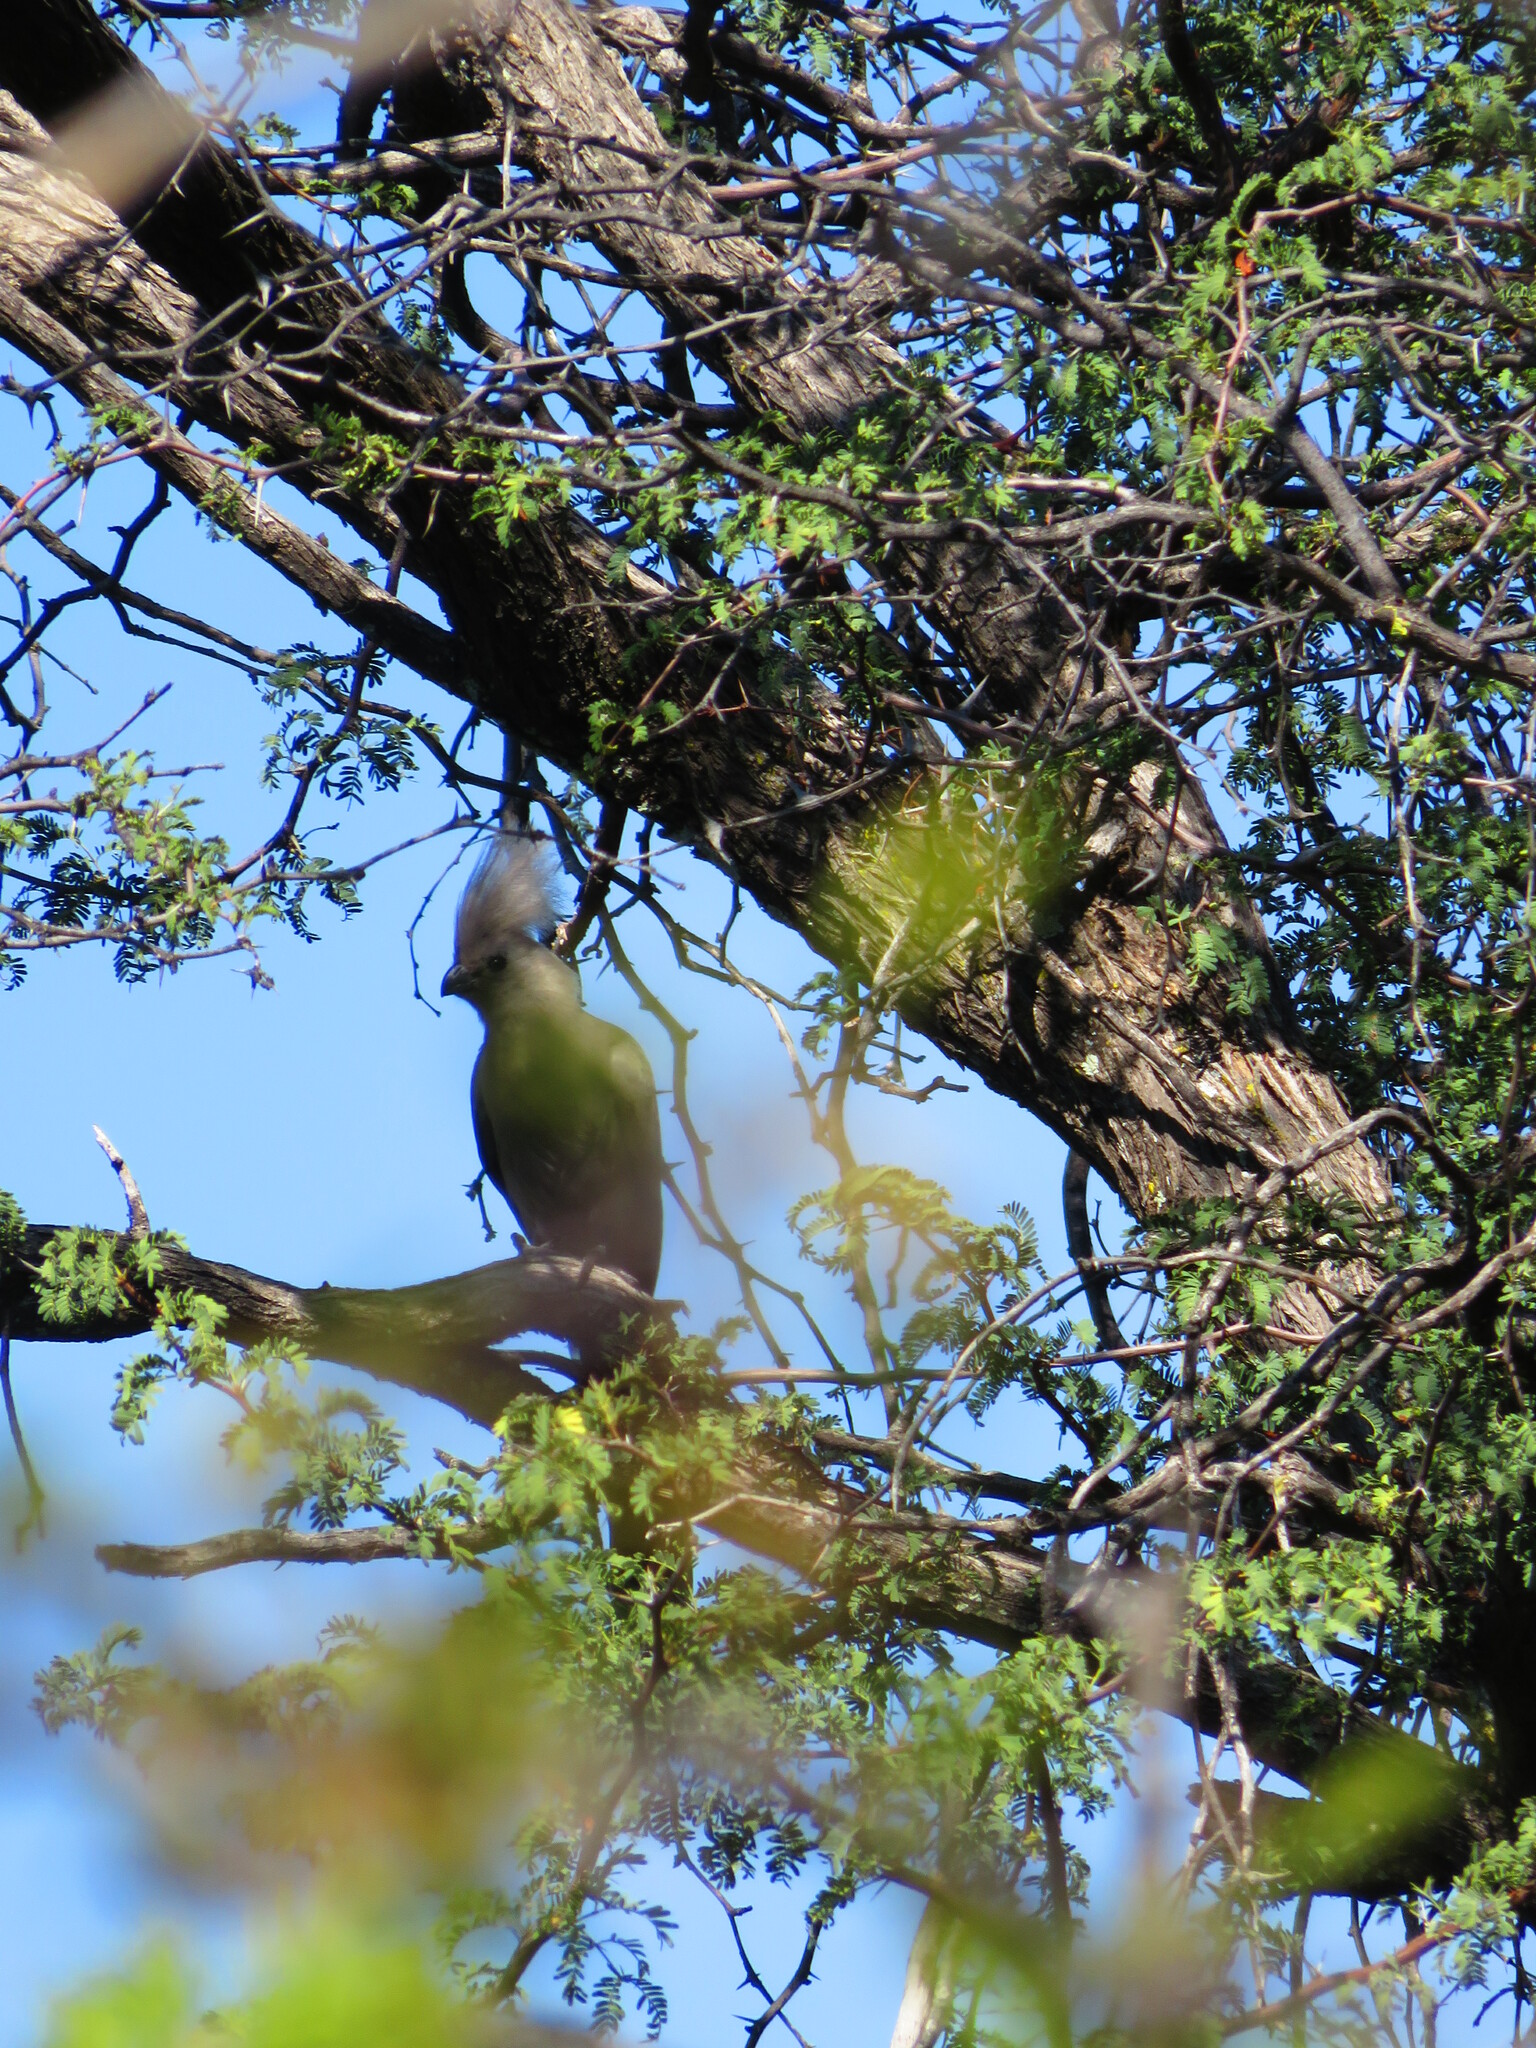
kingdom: Animalia
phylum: Chordata
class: Aves
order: Musophagiformes
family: Musophagidae
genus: Corythaixoides
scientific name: Corythaixoides concolor
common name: Grey go-away-bird
